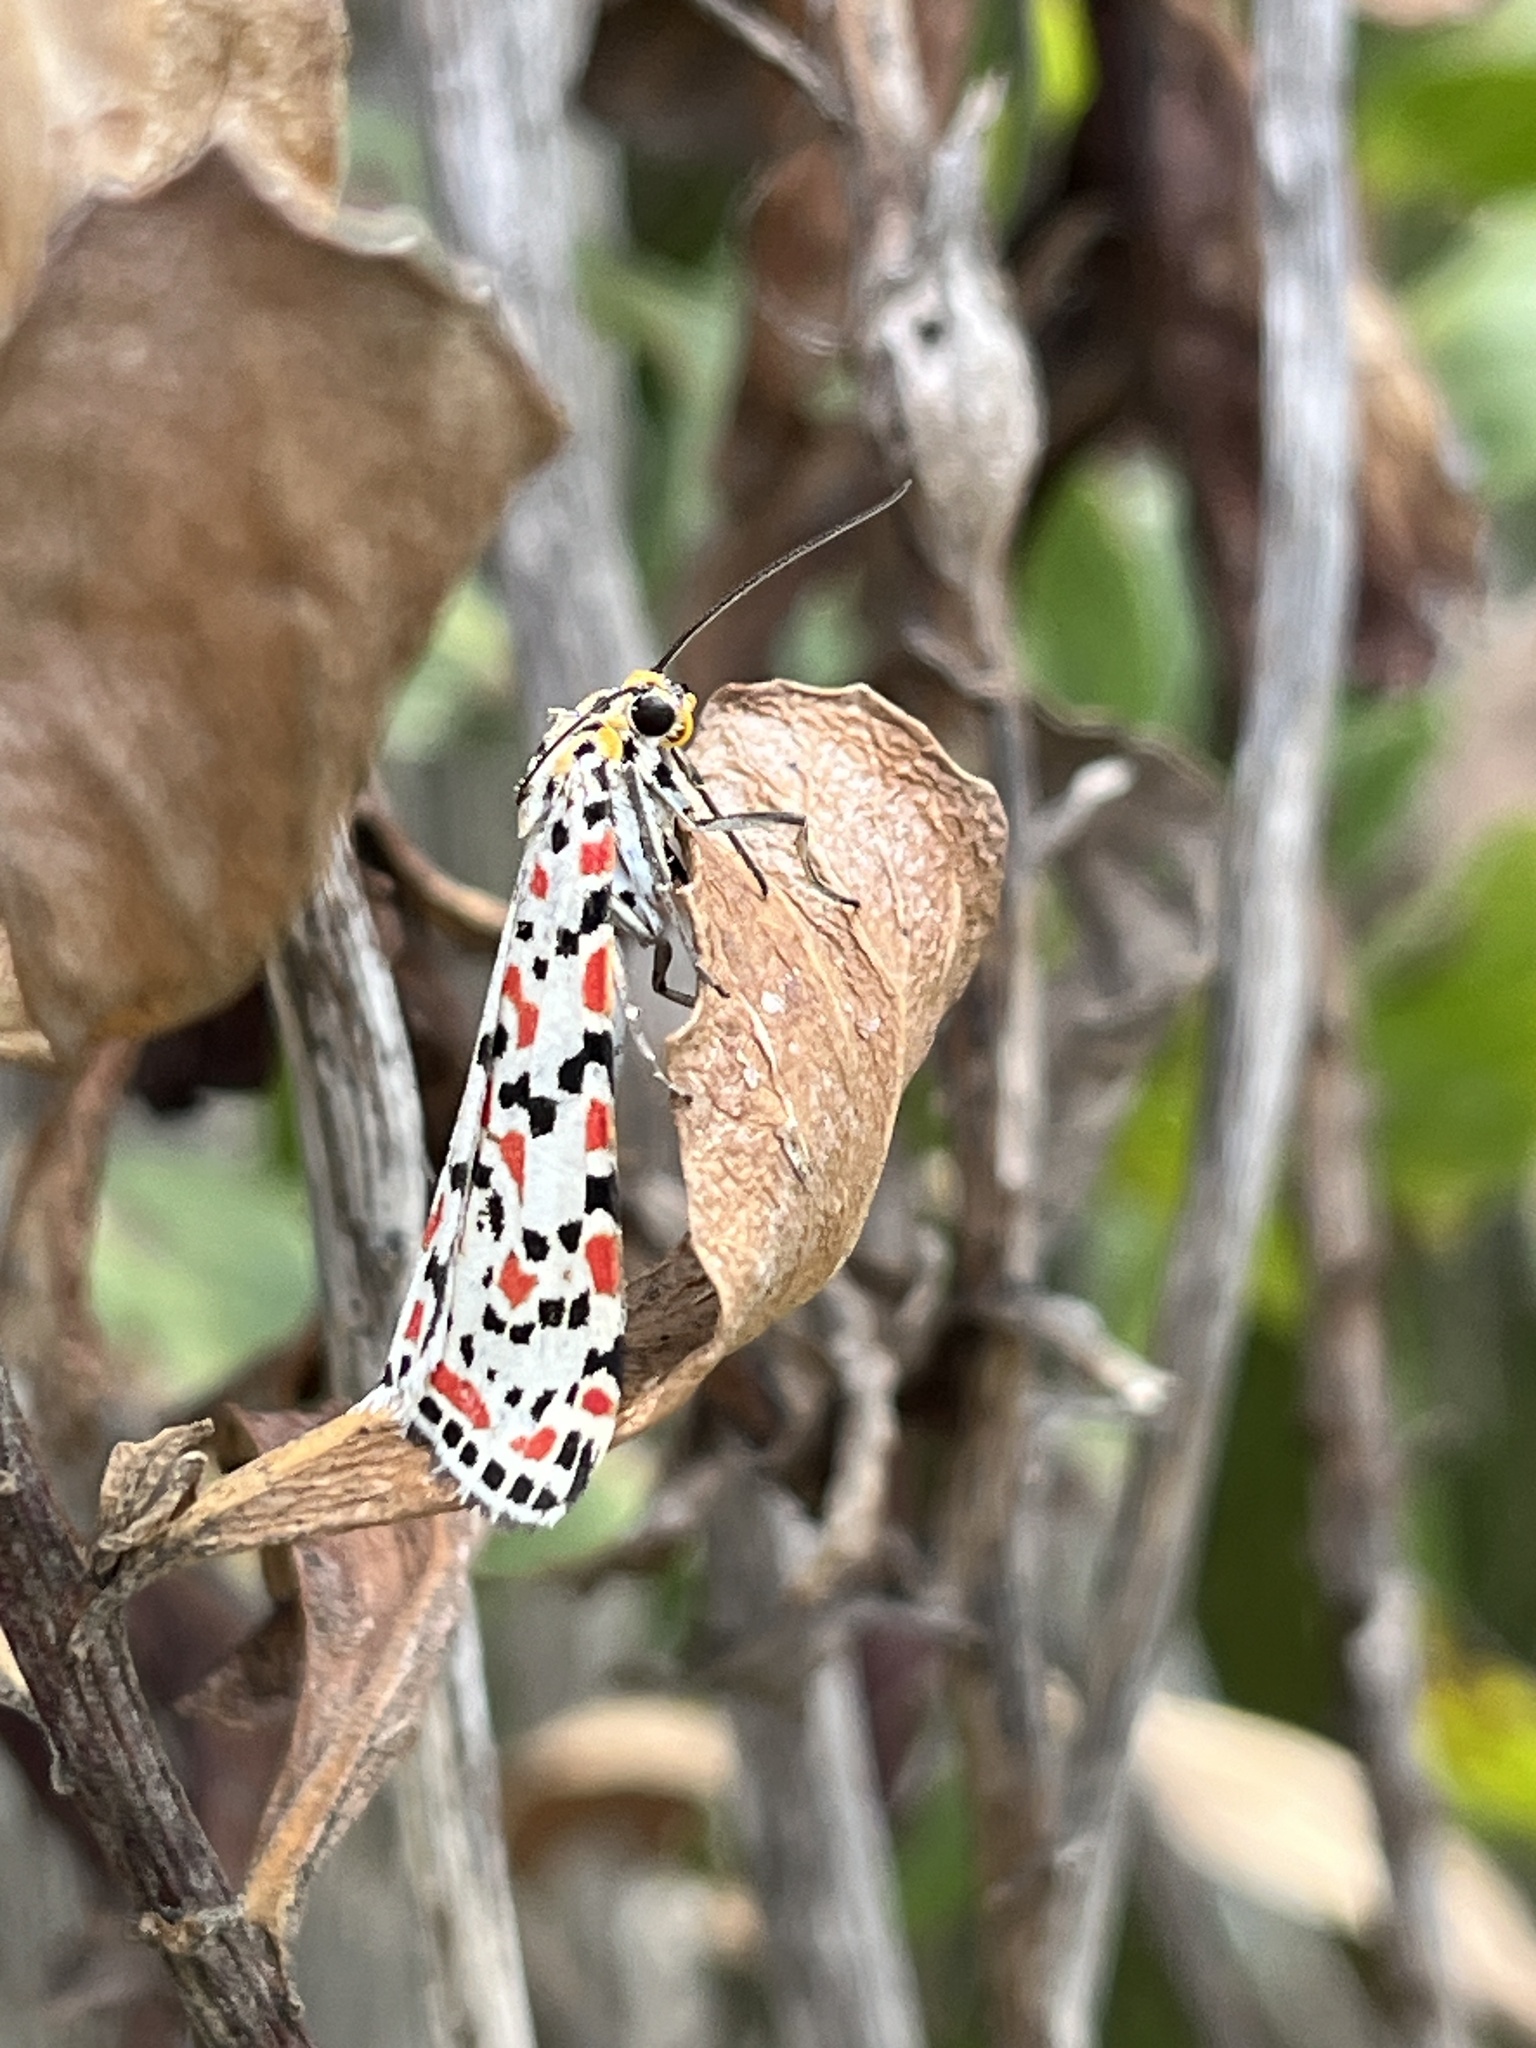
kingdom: Animalia
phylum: Arthropoda
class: Insecta
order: Lepidoptera
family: Erebidae
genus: Utetheisa
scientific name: Utetheisa pulchella
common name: Crimson speckled
